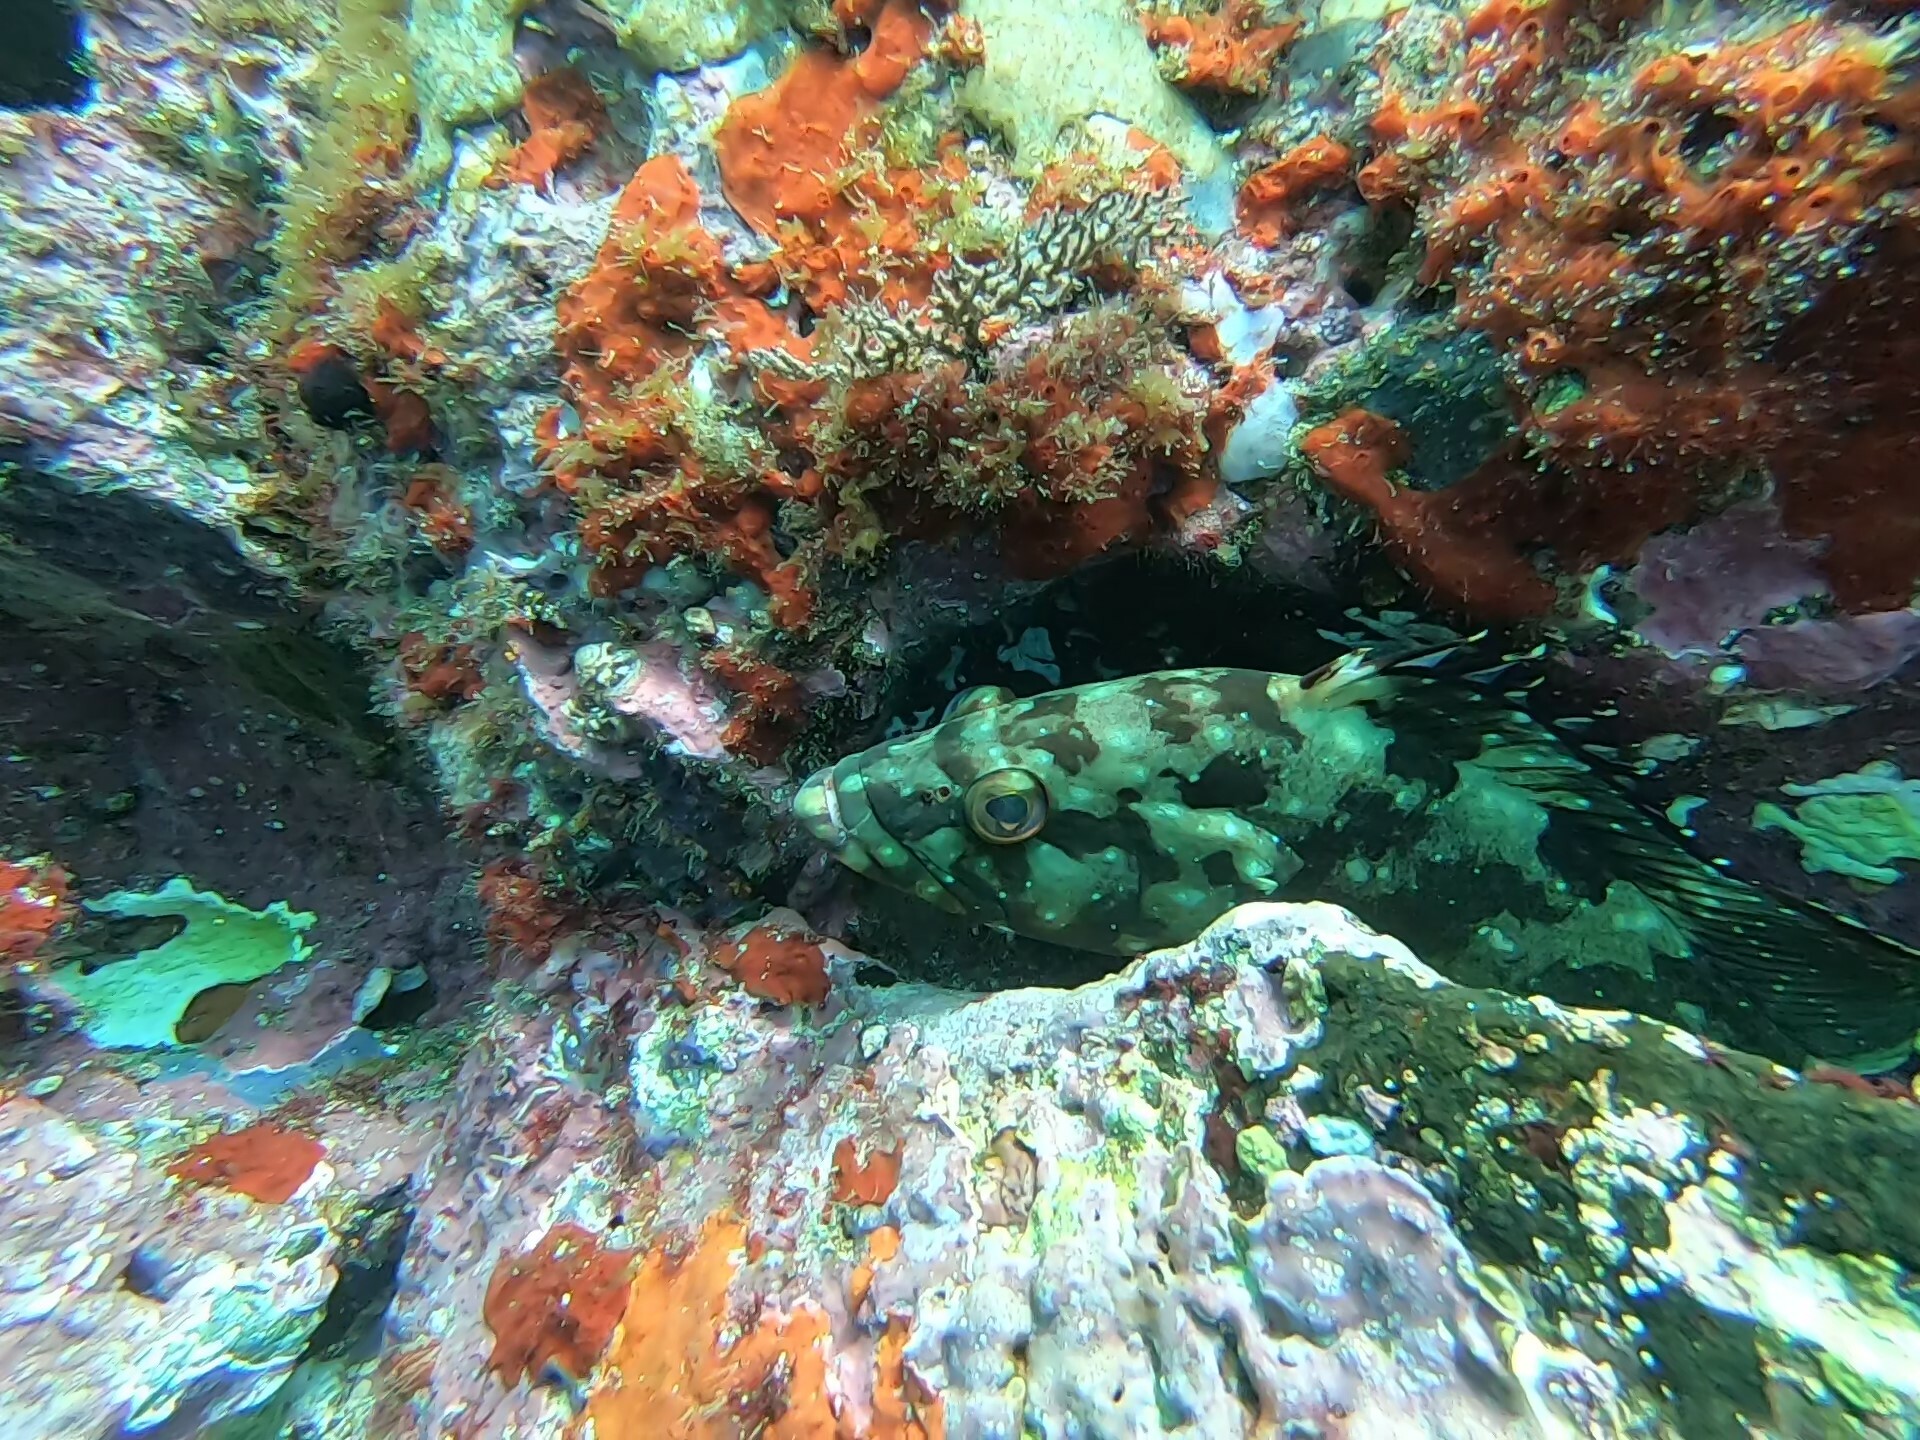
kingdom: Animalia
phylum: Chordata
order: Perciformes
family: Serranidae
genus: Epinephelus
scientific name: Epinephelus labriformis
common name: Flag cabrilla
